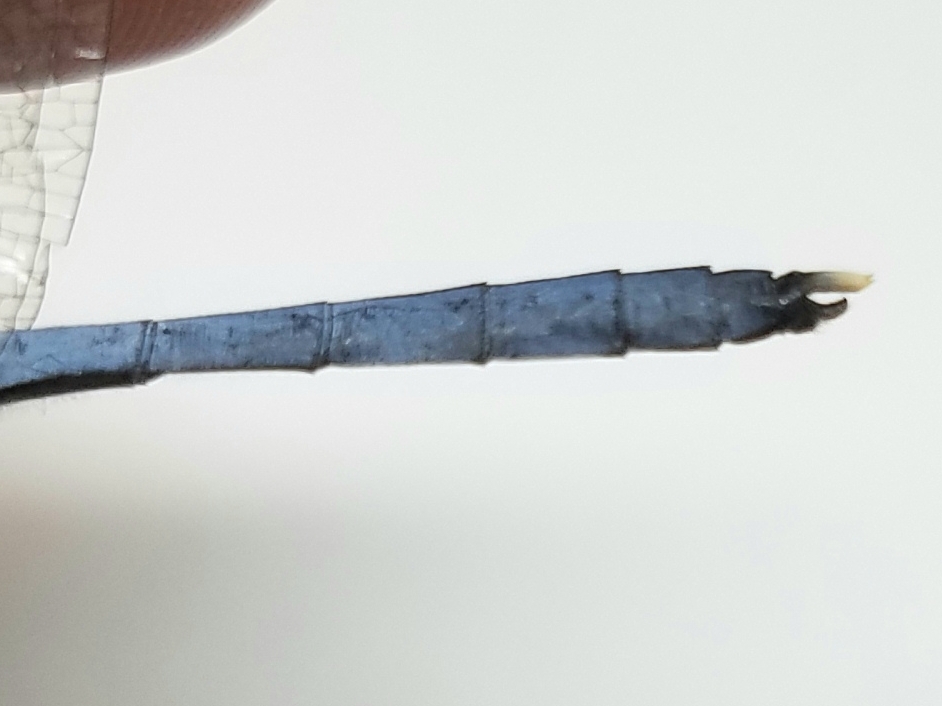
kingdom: Animalia
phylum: Arthropoda
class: Insecta
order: Odonata
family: Libellulidae
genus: Erythemis
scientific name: Erythemis simplicicollis
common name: Eastern pondhawk
